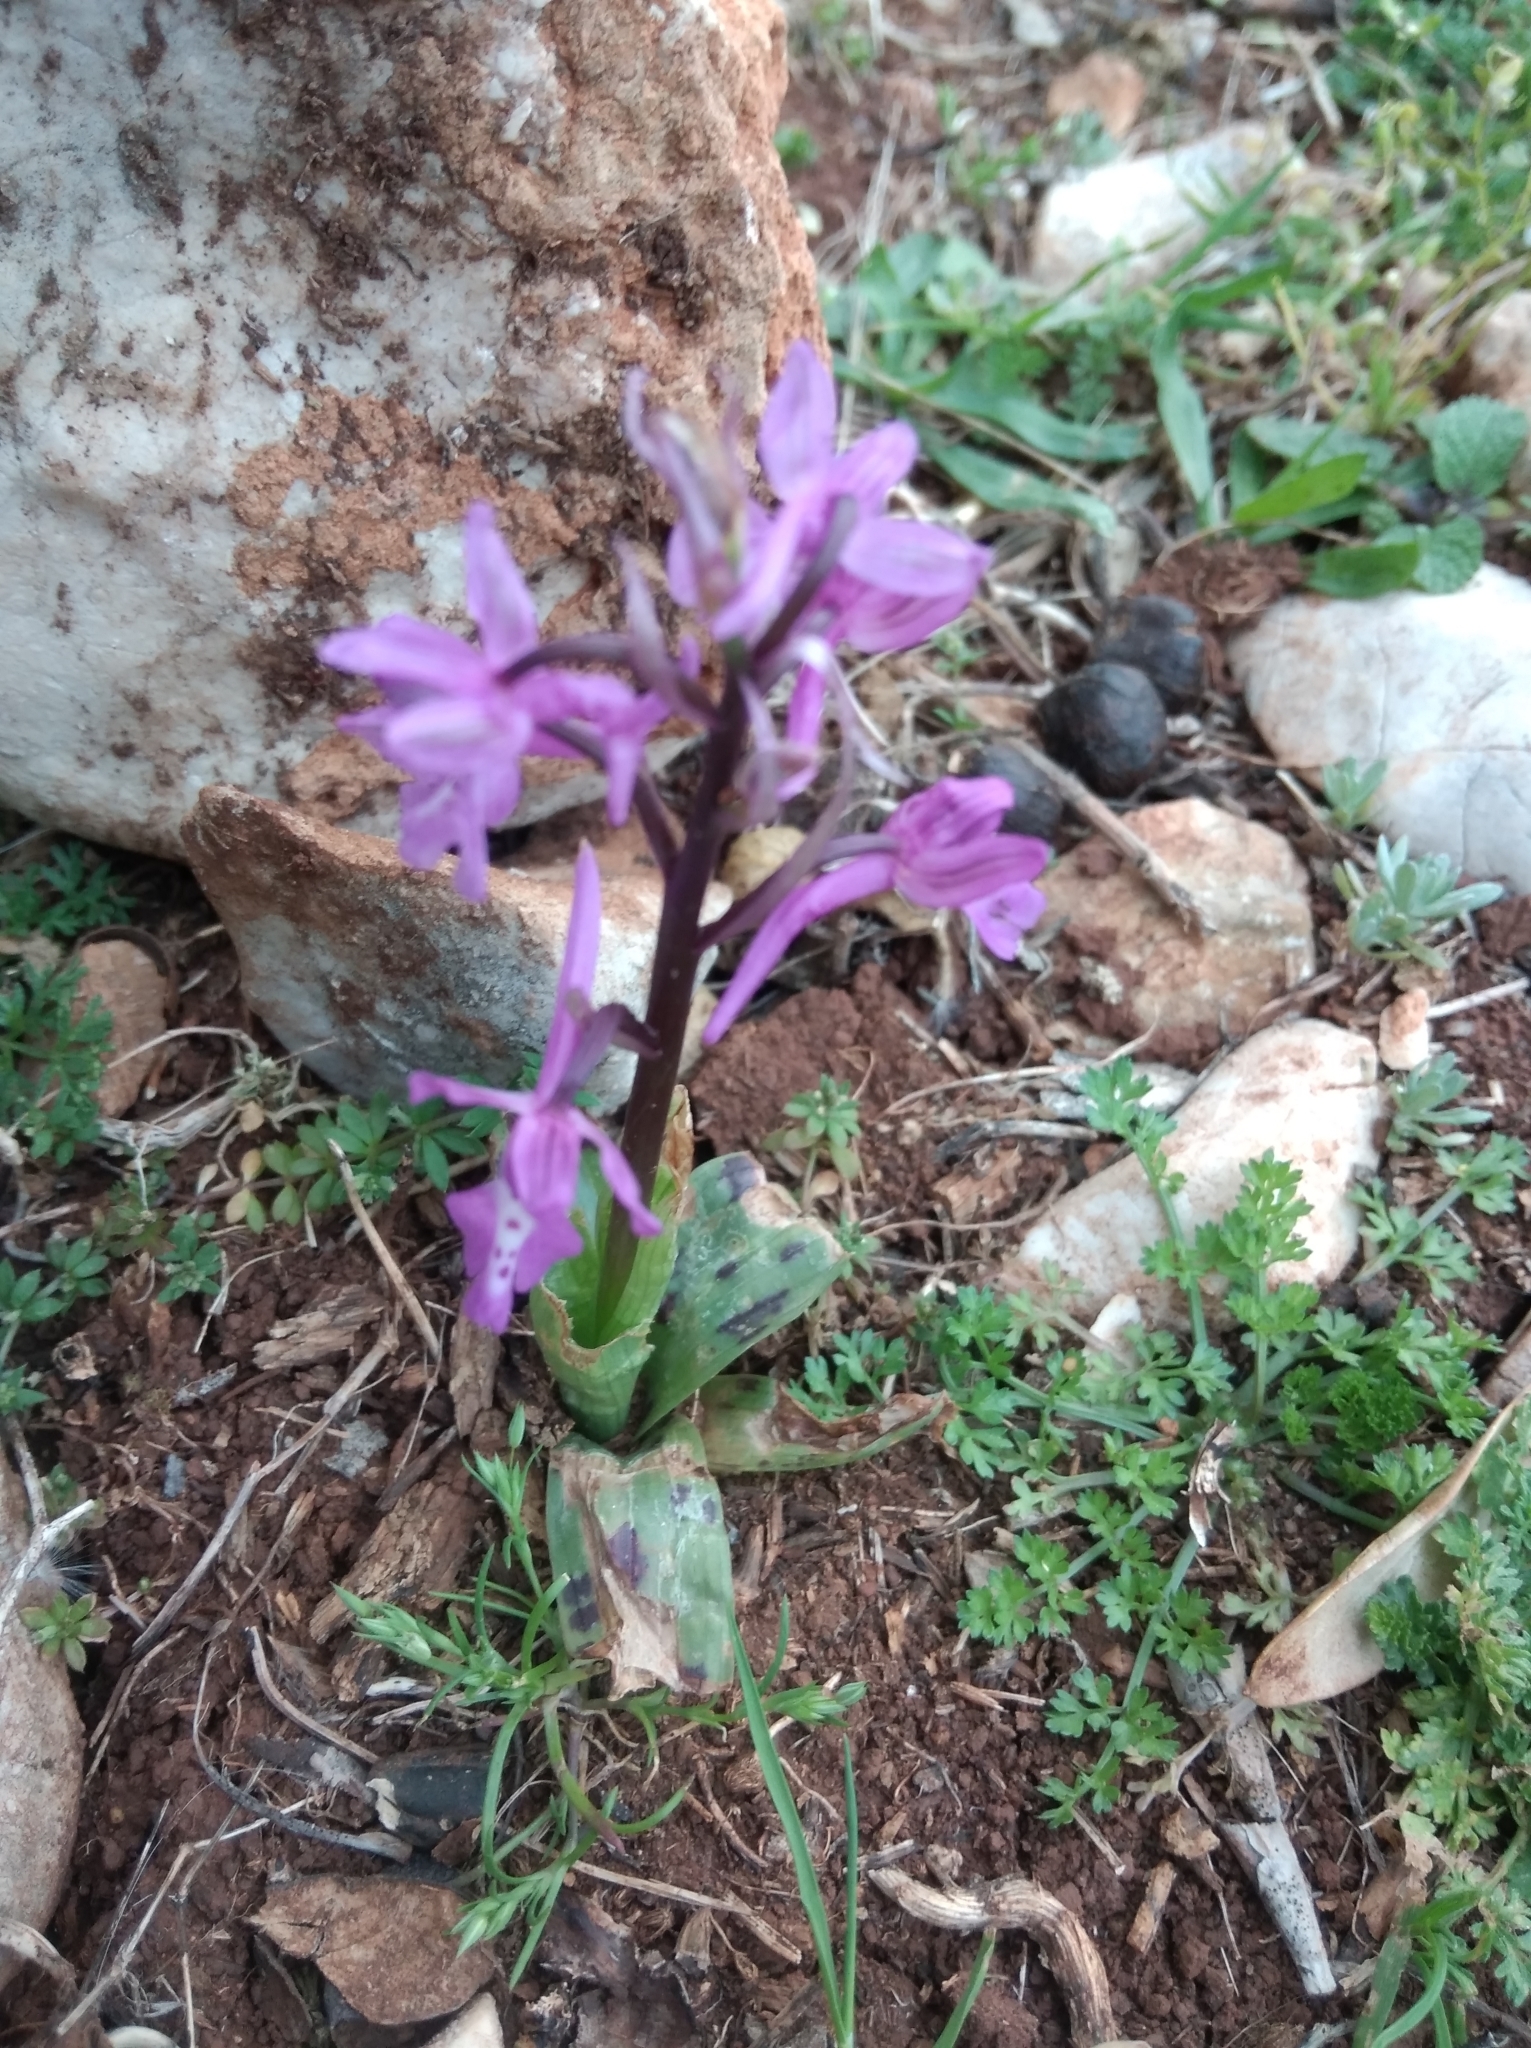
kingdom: Plantae
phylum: Tracheophyta
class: Liliopsida
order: Asparagales
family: Orchidaceae
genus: Orchis
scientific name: Orchis anatolica
